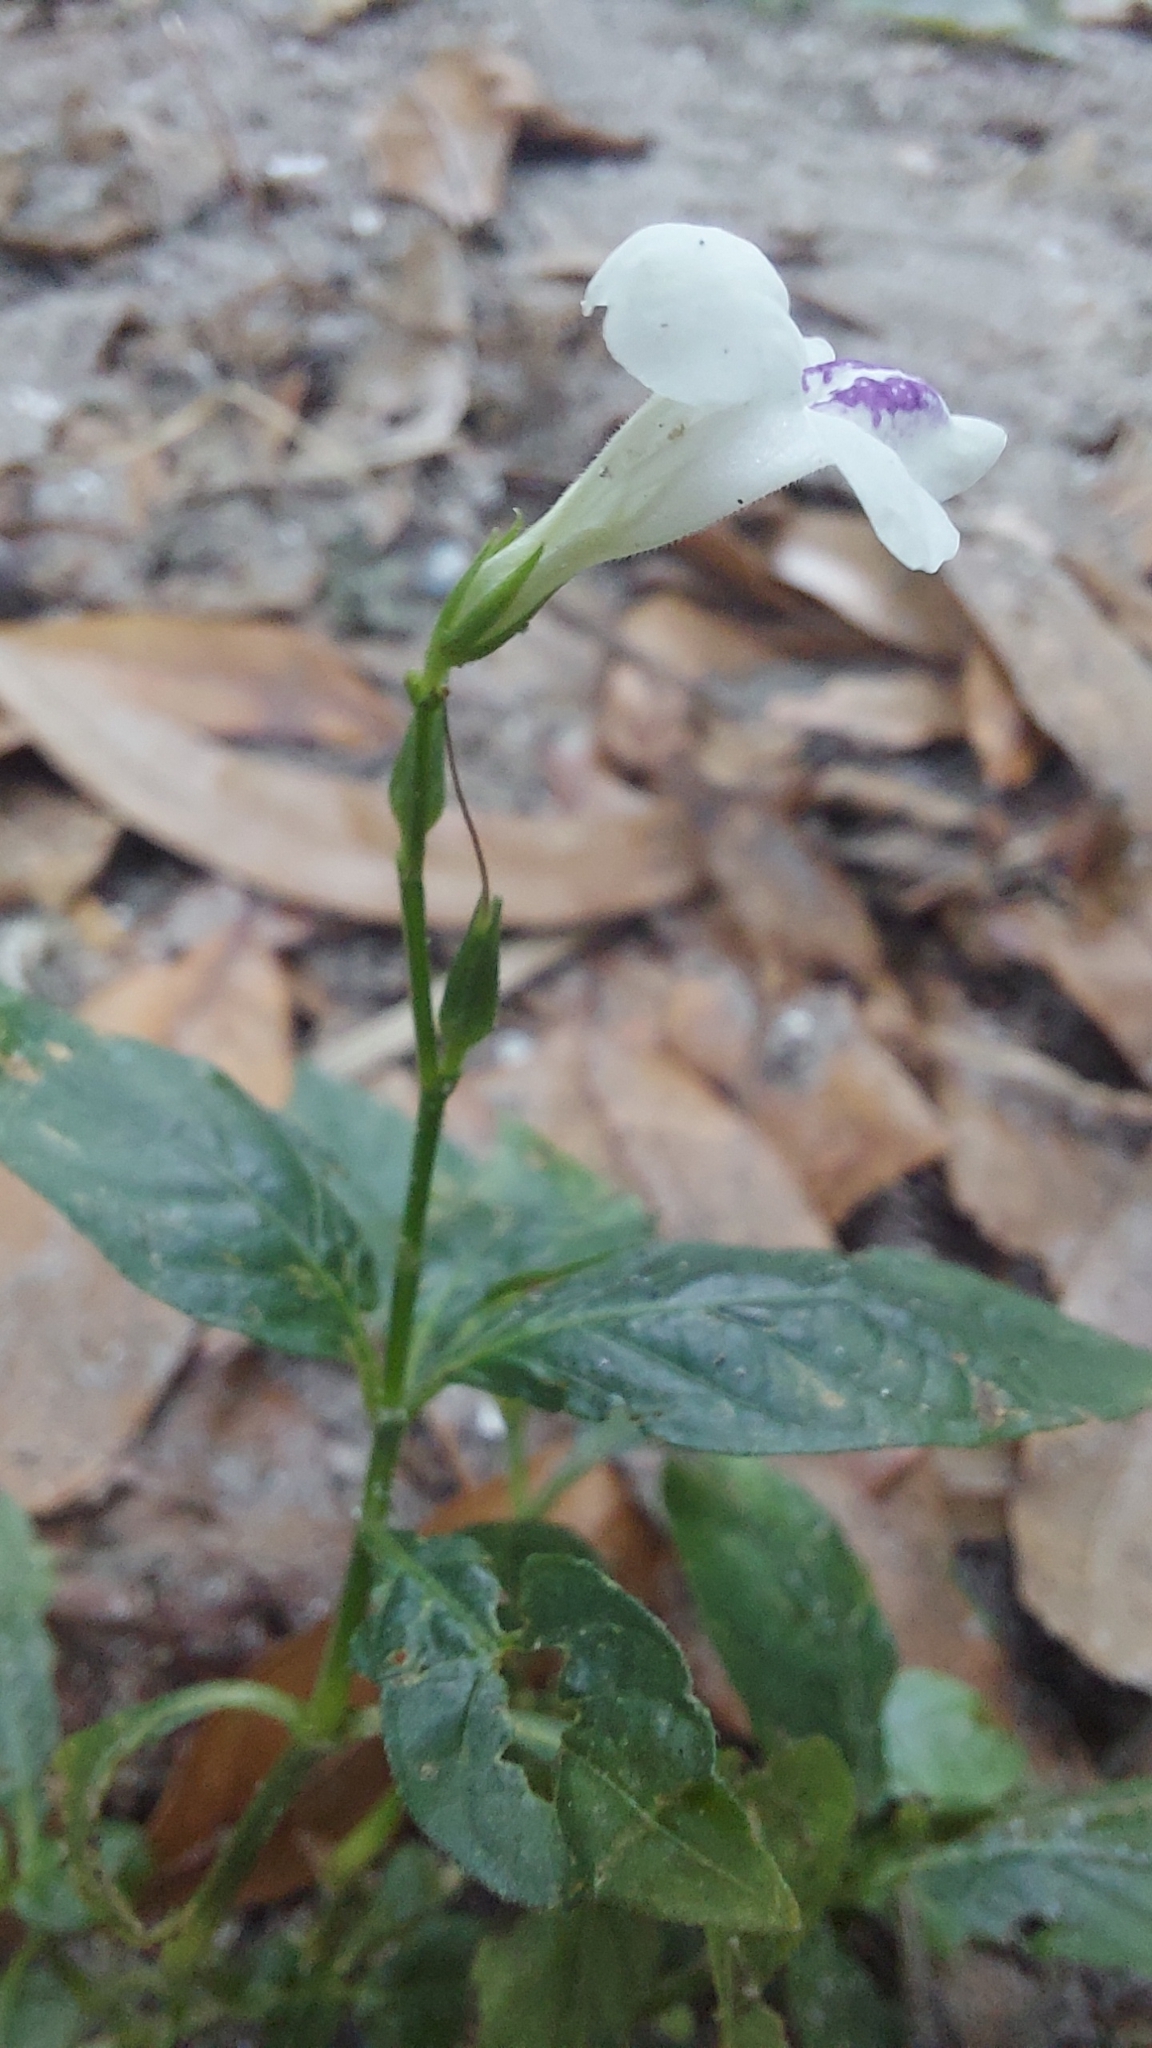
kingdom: Plantae
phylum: Tracheophyta
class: Magnoliopsida
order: Lamiales
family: Acanthaceae
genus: Asystasia
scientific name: Asystasia intrusa
